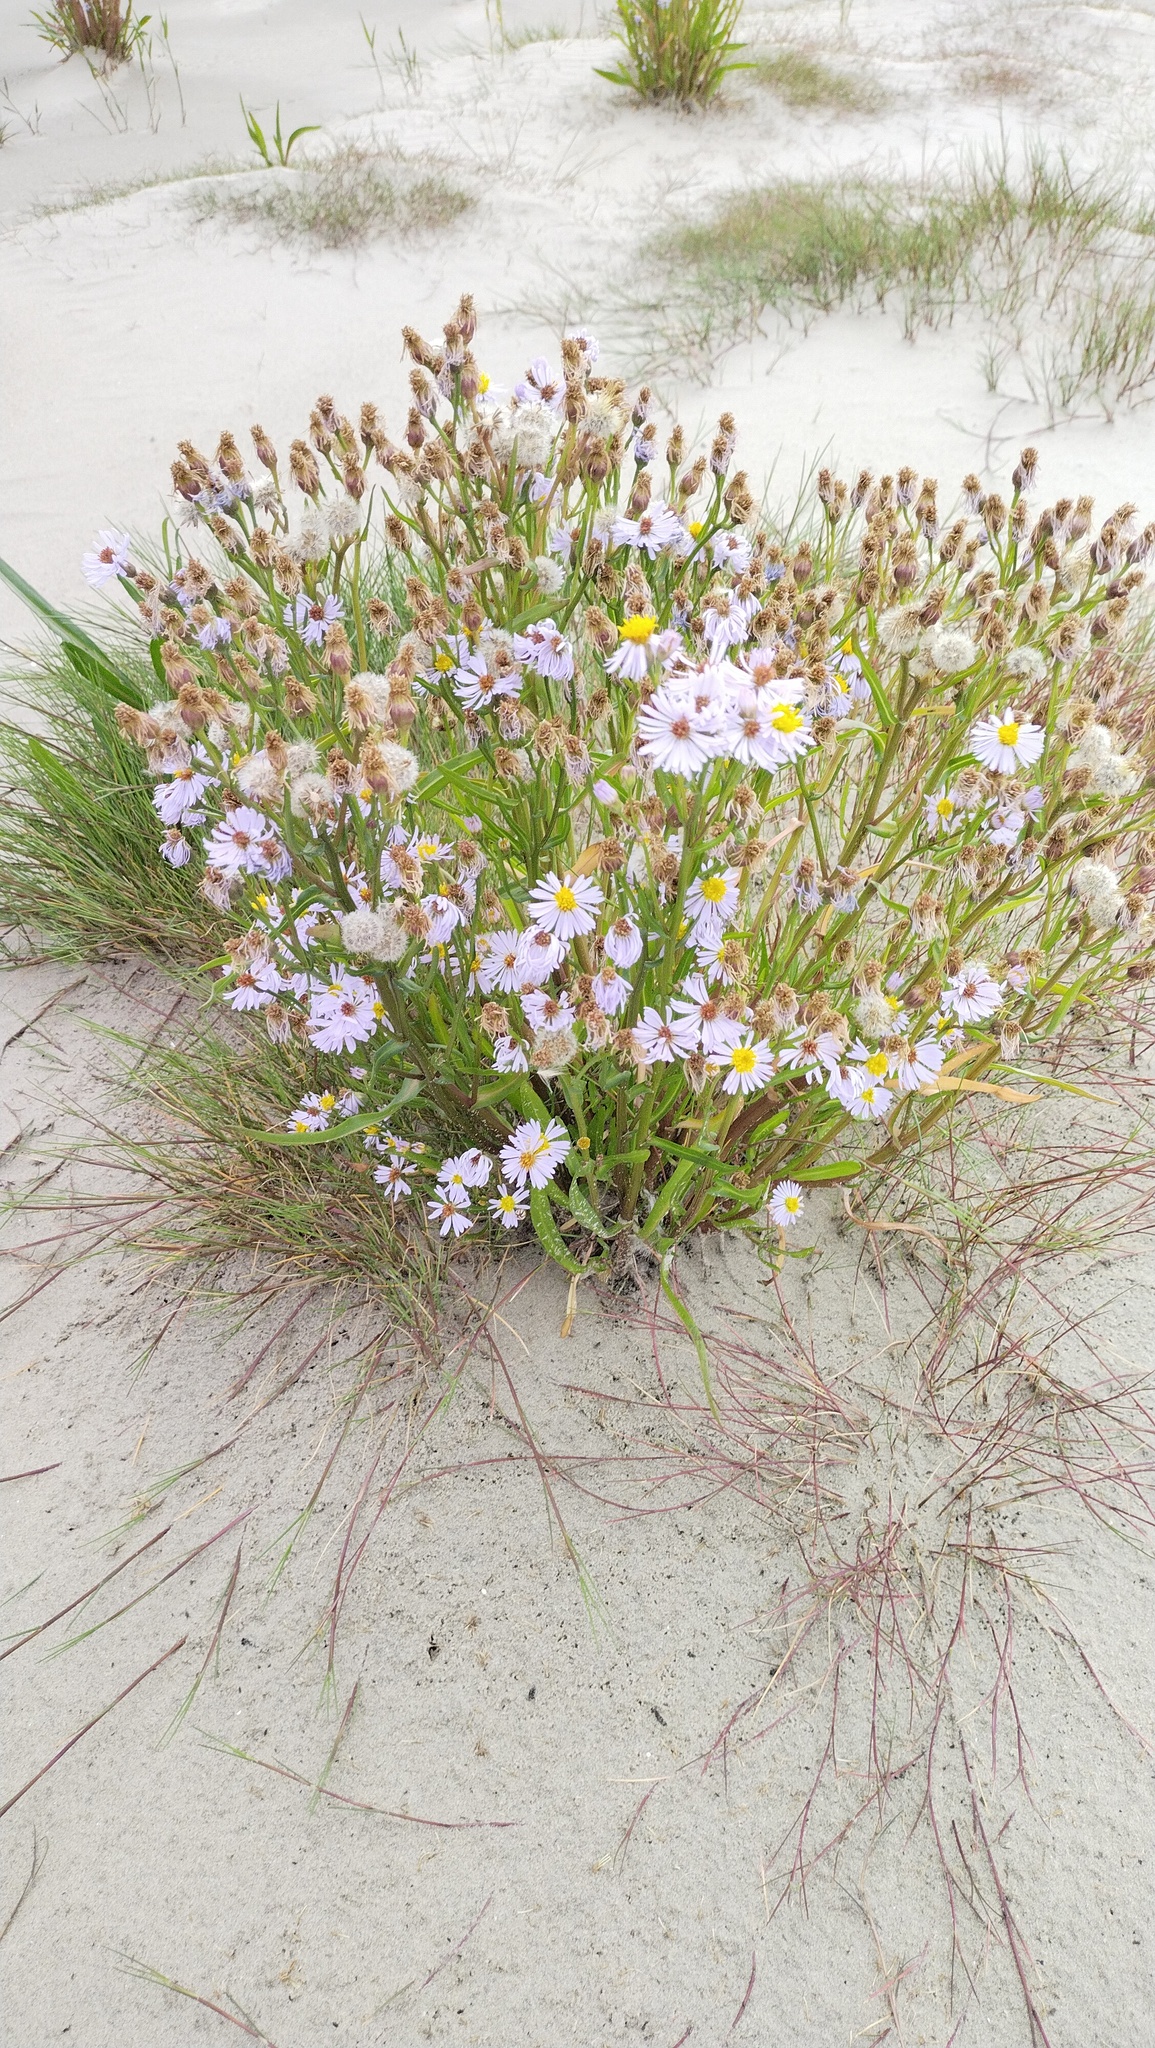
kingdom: Plantae
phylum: Tracheophyta
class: Magnoliopsida
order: Asterales
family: Asteraceae
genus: Tripolium
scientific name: Tripolium pannonicum
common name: Sea aster
